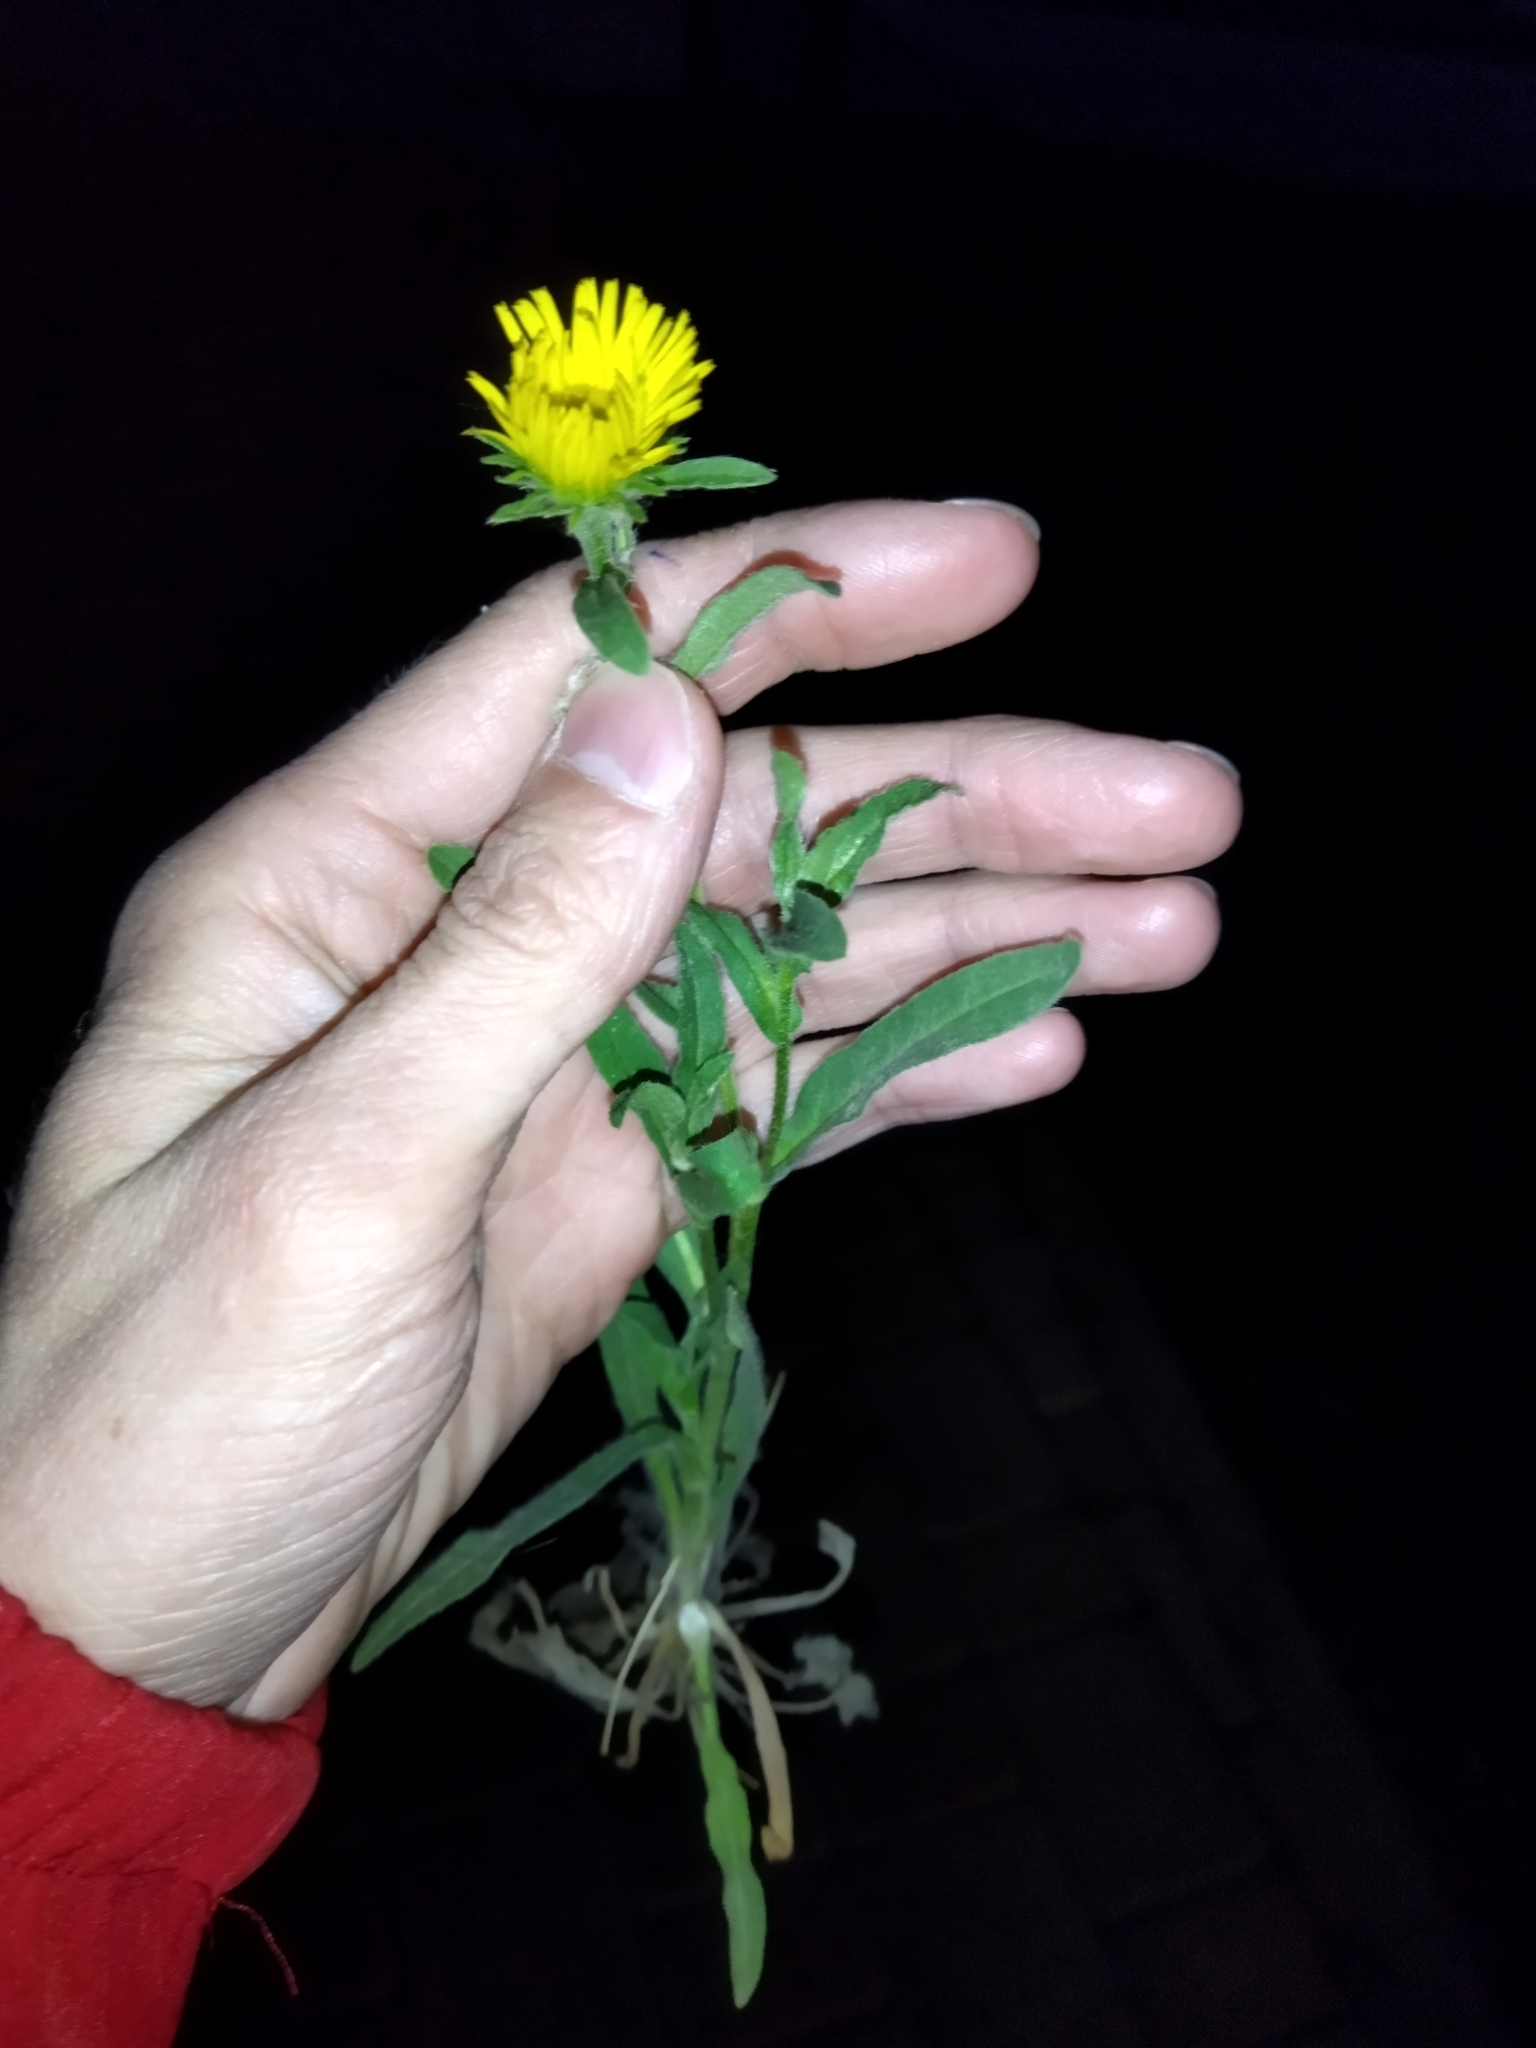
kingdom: Plantae
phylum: Tracheophyta
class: Magnoliopsida
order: Asterales
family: Asteraceae
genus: Pentanema
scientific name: Pentanema britannicum
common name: British elecampane
